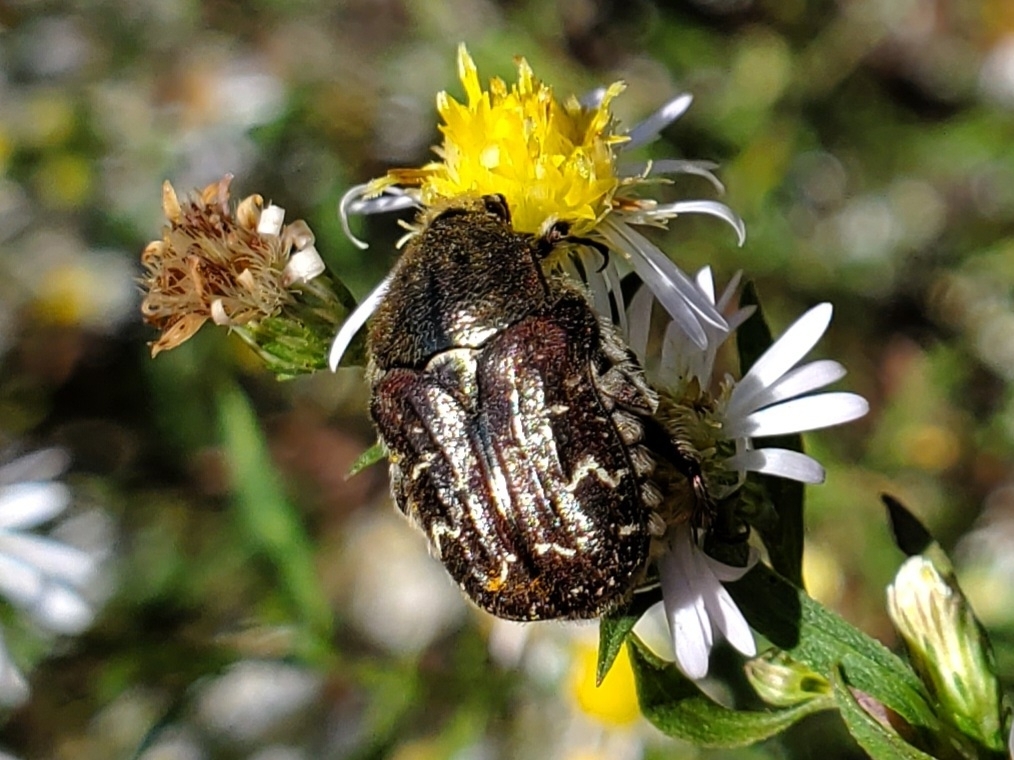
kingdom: Animalia
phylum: Arthropoda
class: Insecta
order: Coleoptera
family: Scarabaeidae
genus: Euphoria
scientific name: Euphoria sepulcralis
